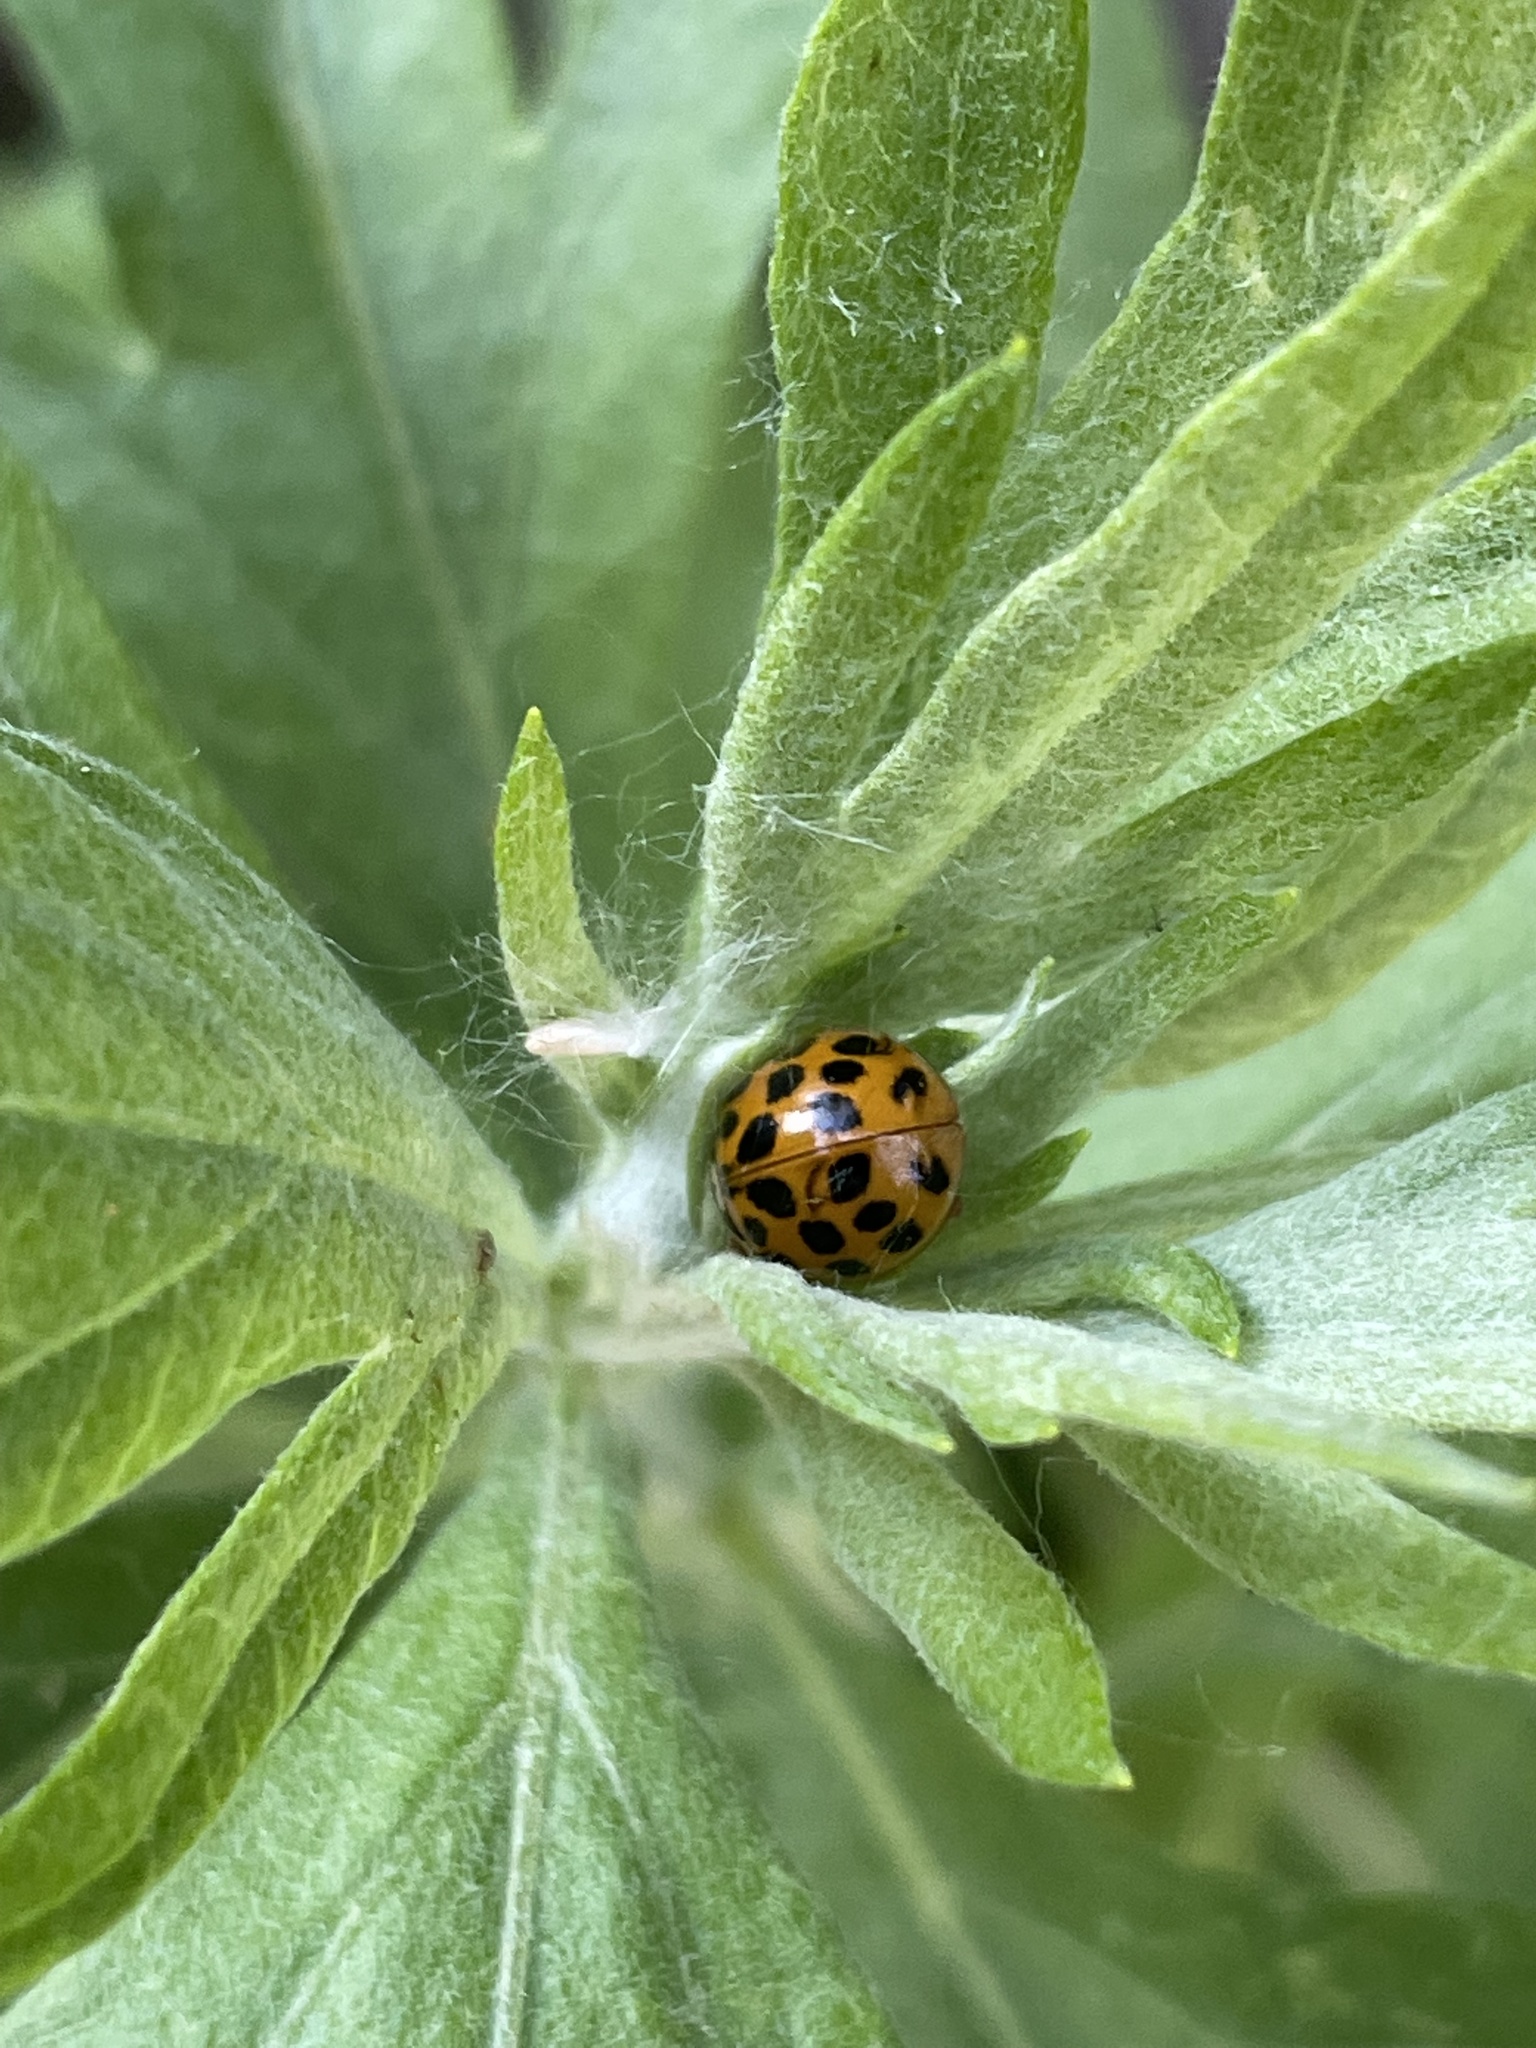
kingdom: Animalia
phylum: Arthropoda
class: Insecta
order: Coleoptera
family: Coccinellidae
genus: Harmonia
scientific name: Harmonia axyridis
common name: Harlequin ladybird
